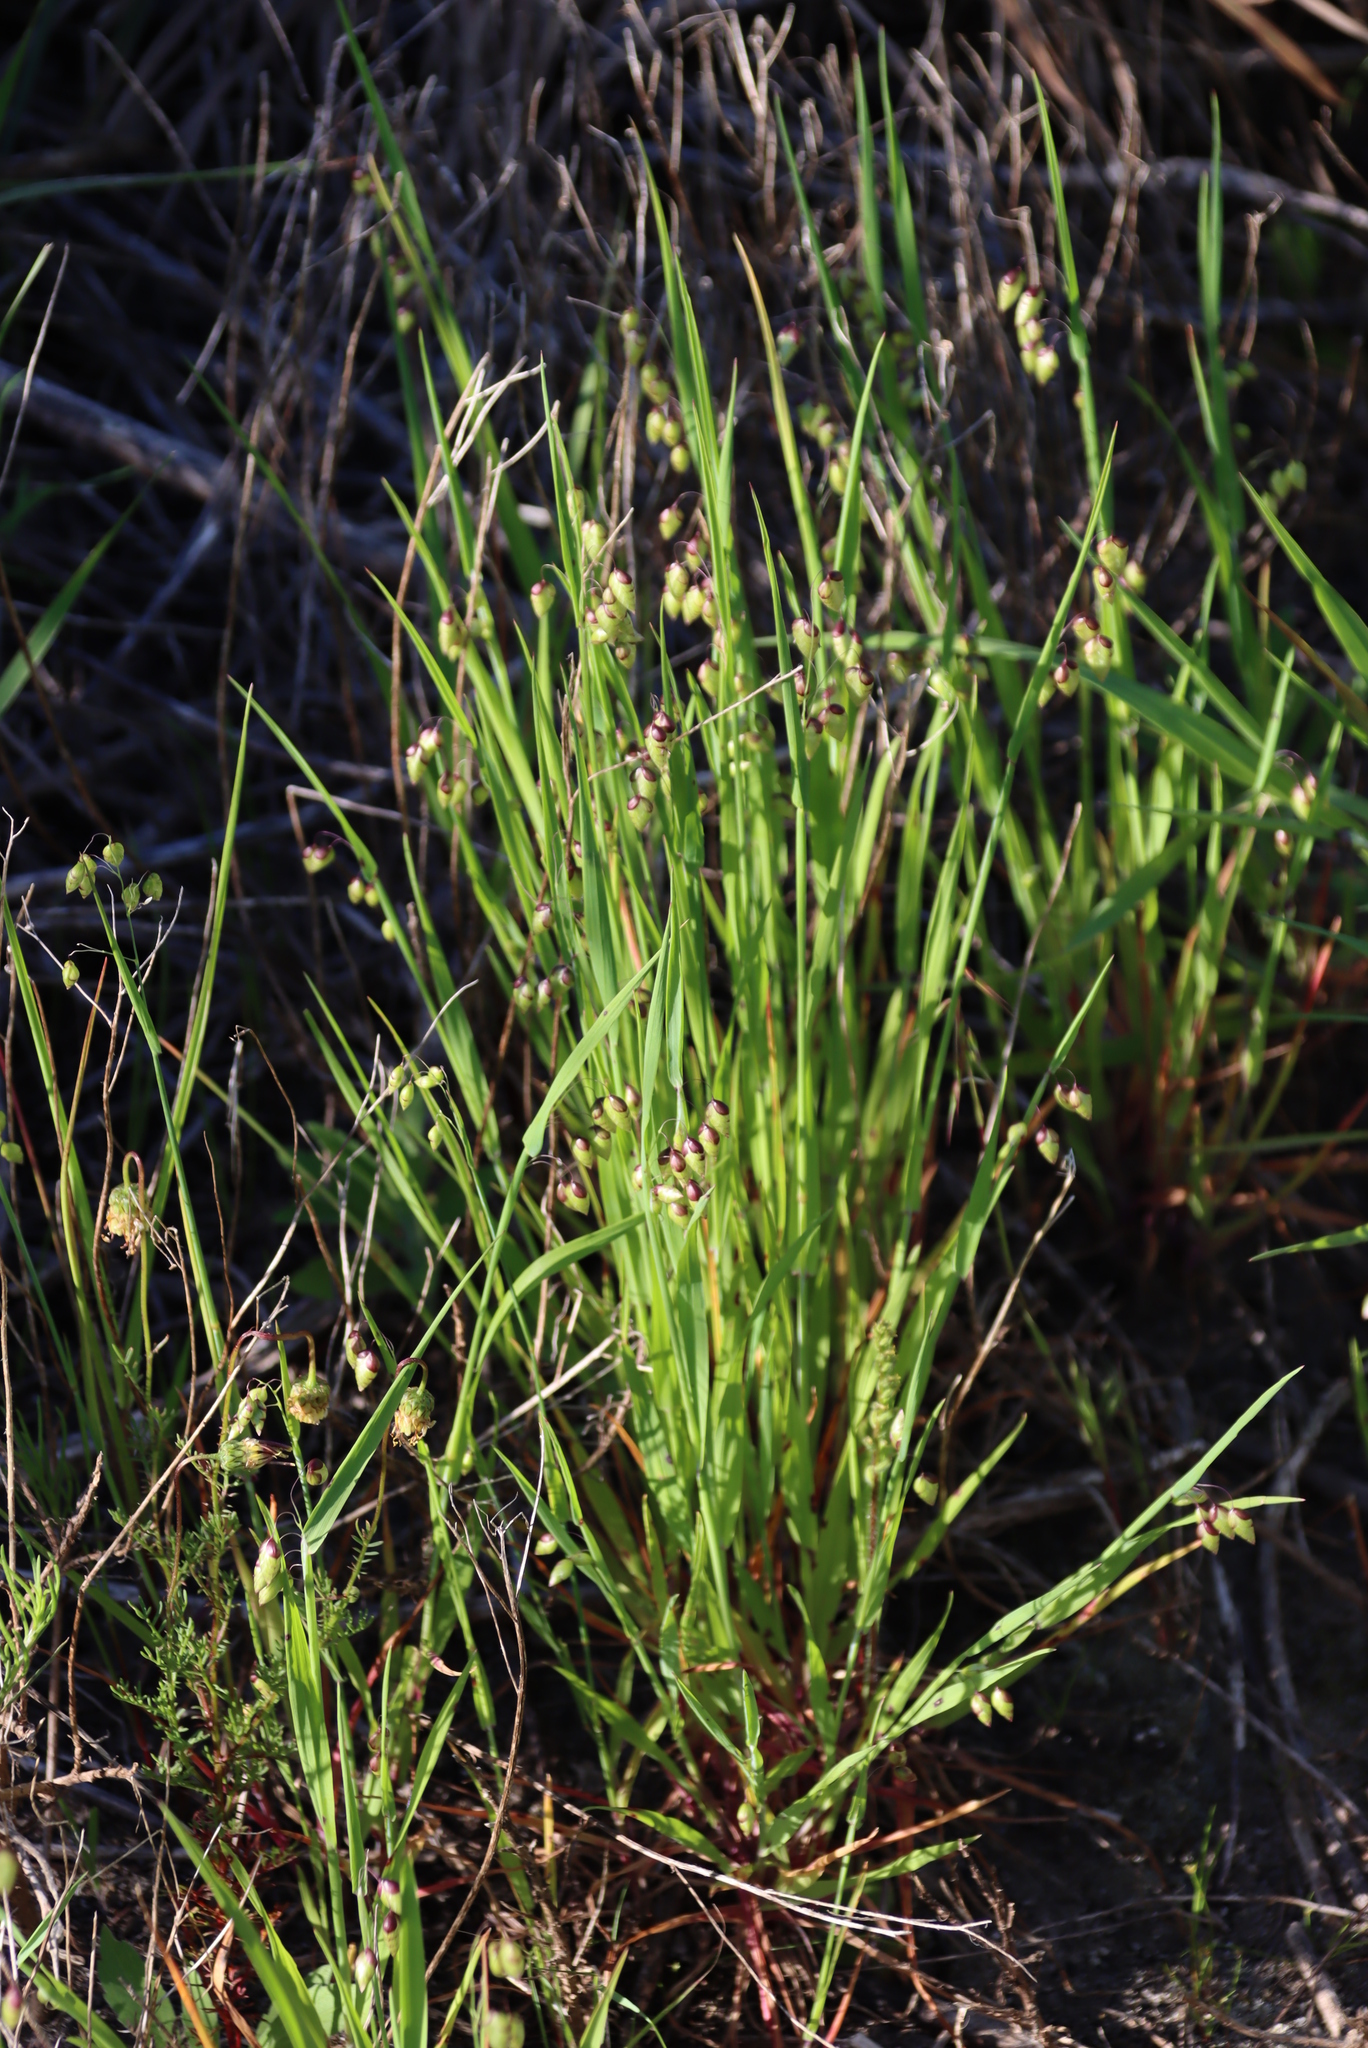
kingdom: Plantae
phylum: Tracheophyta
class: Liliopsida
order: Poales
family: Poaceae
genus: Briza
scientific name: Briza maxima
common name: Big quakinggrass
